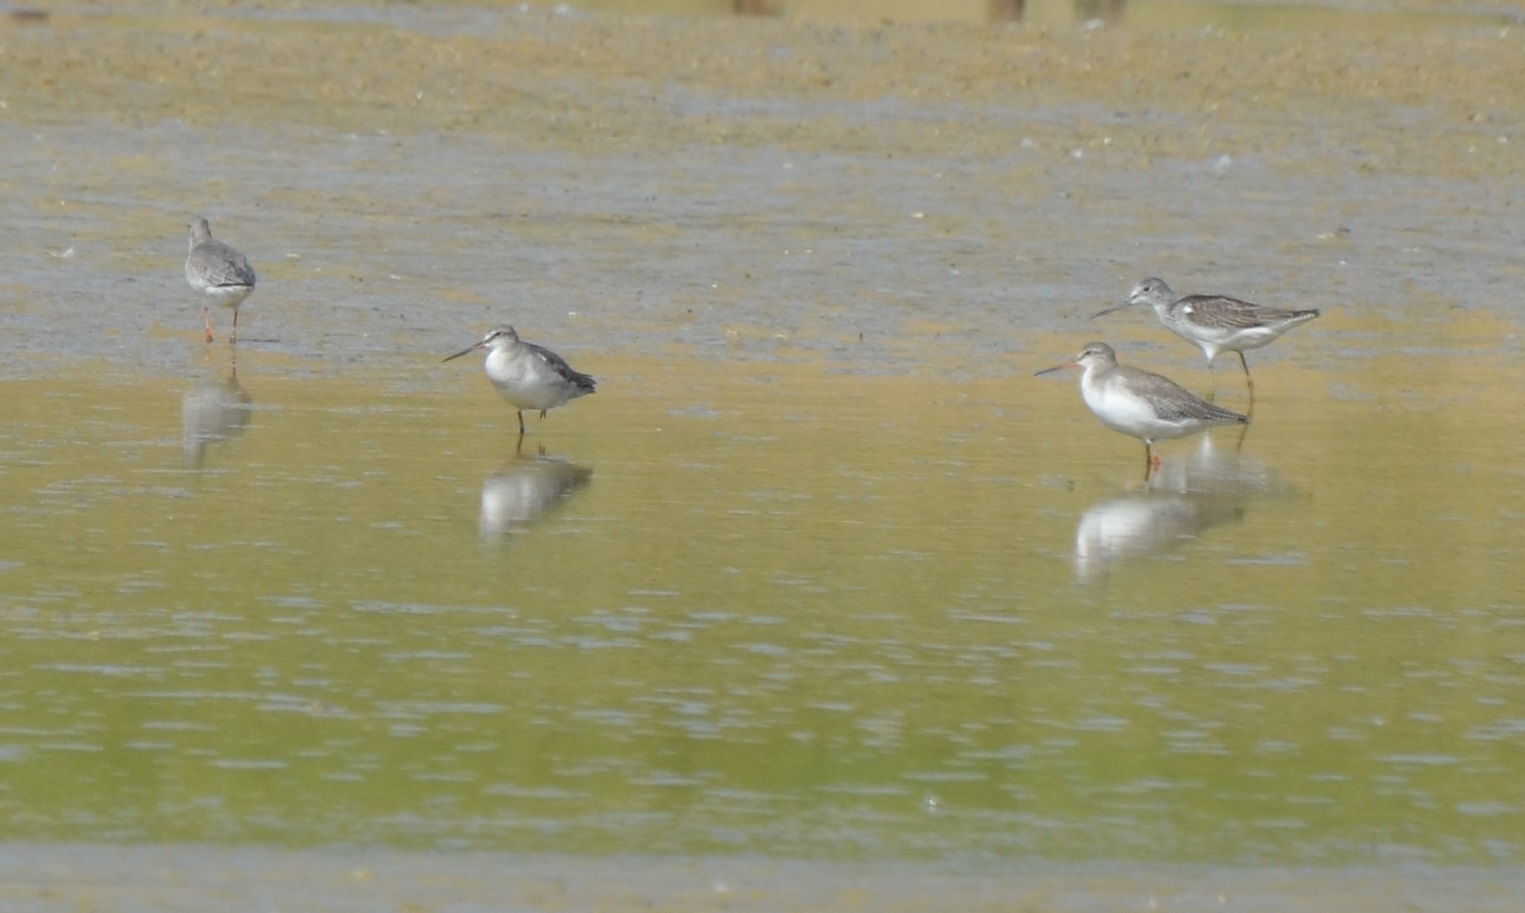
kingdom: Animalia
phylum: Chordata
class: Aves
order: Charadriiformes
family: Scolopacidae
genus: Tringa
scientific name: Tringa erythropus
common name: Spotted redshank
